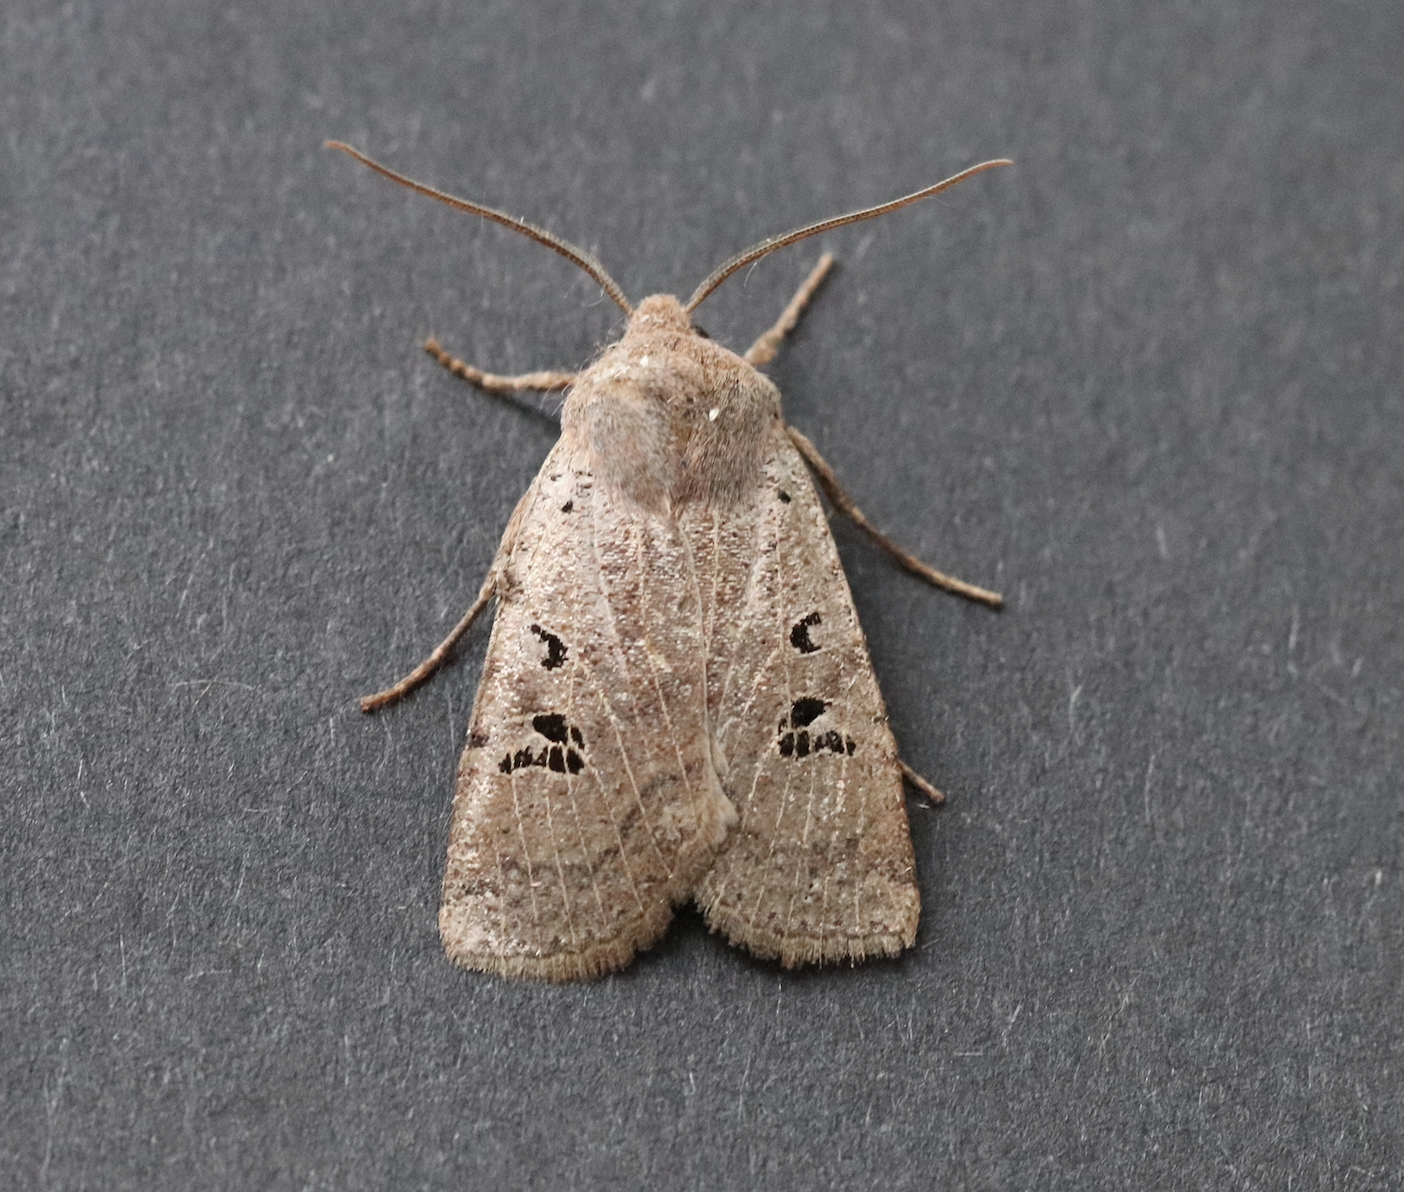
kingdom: Animalia
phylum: Arthropoda
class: Insecta
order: Lepidoptera
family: Noctuidae
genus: Conistra
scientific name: Conistra rubiginosa
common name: Black-spotted chestnut
